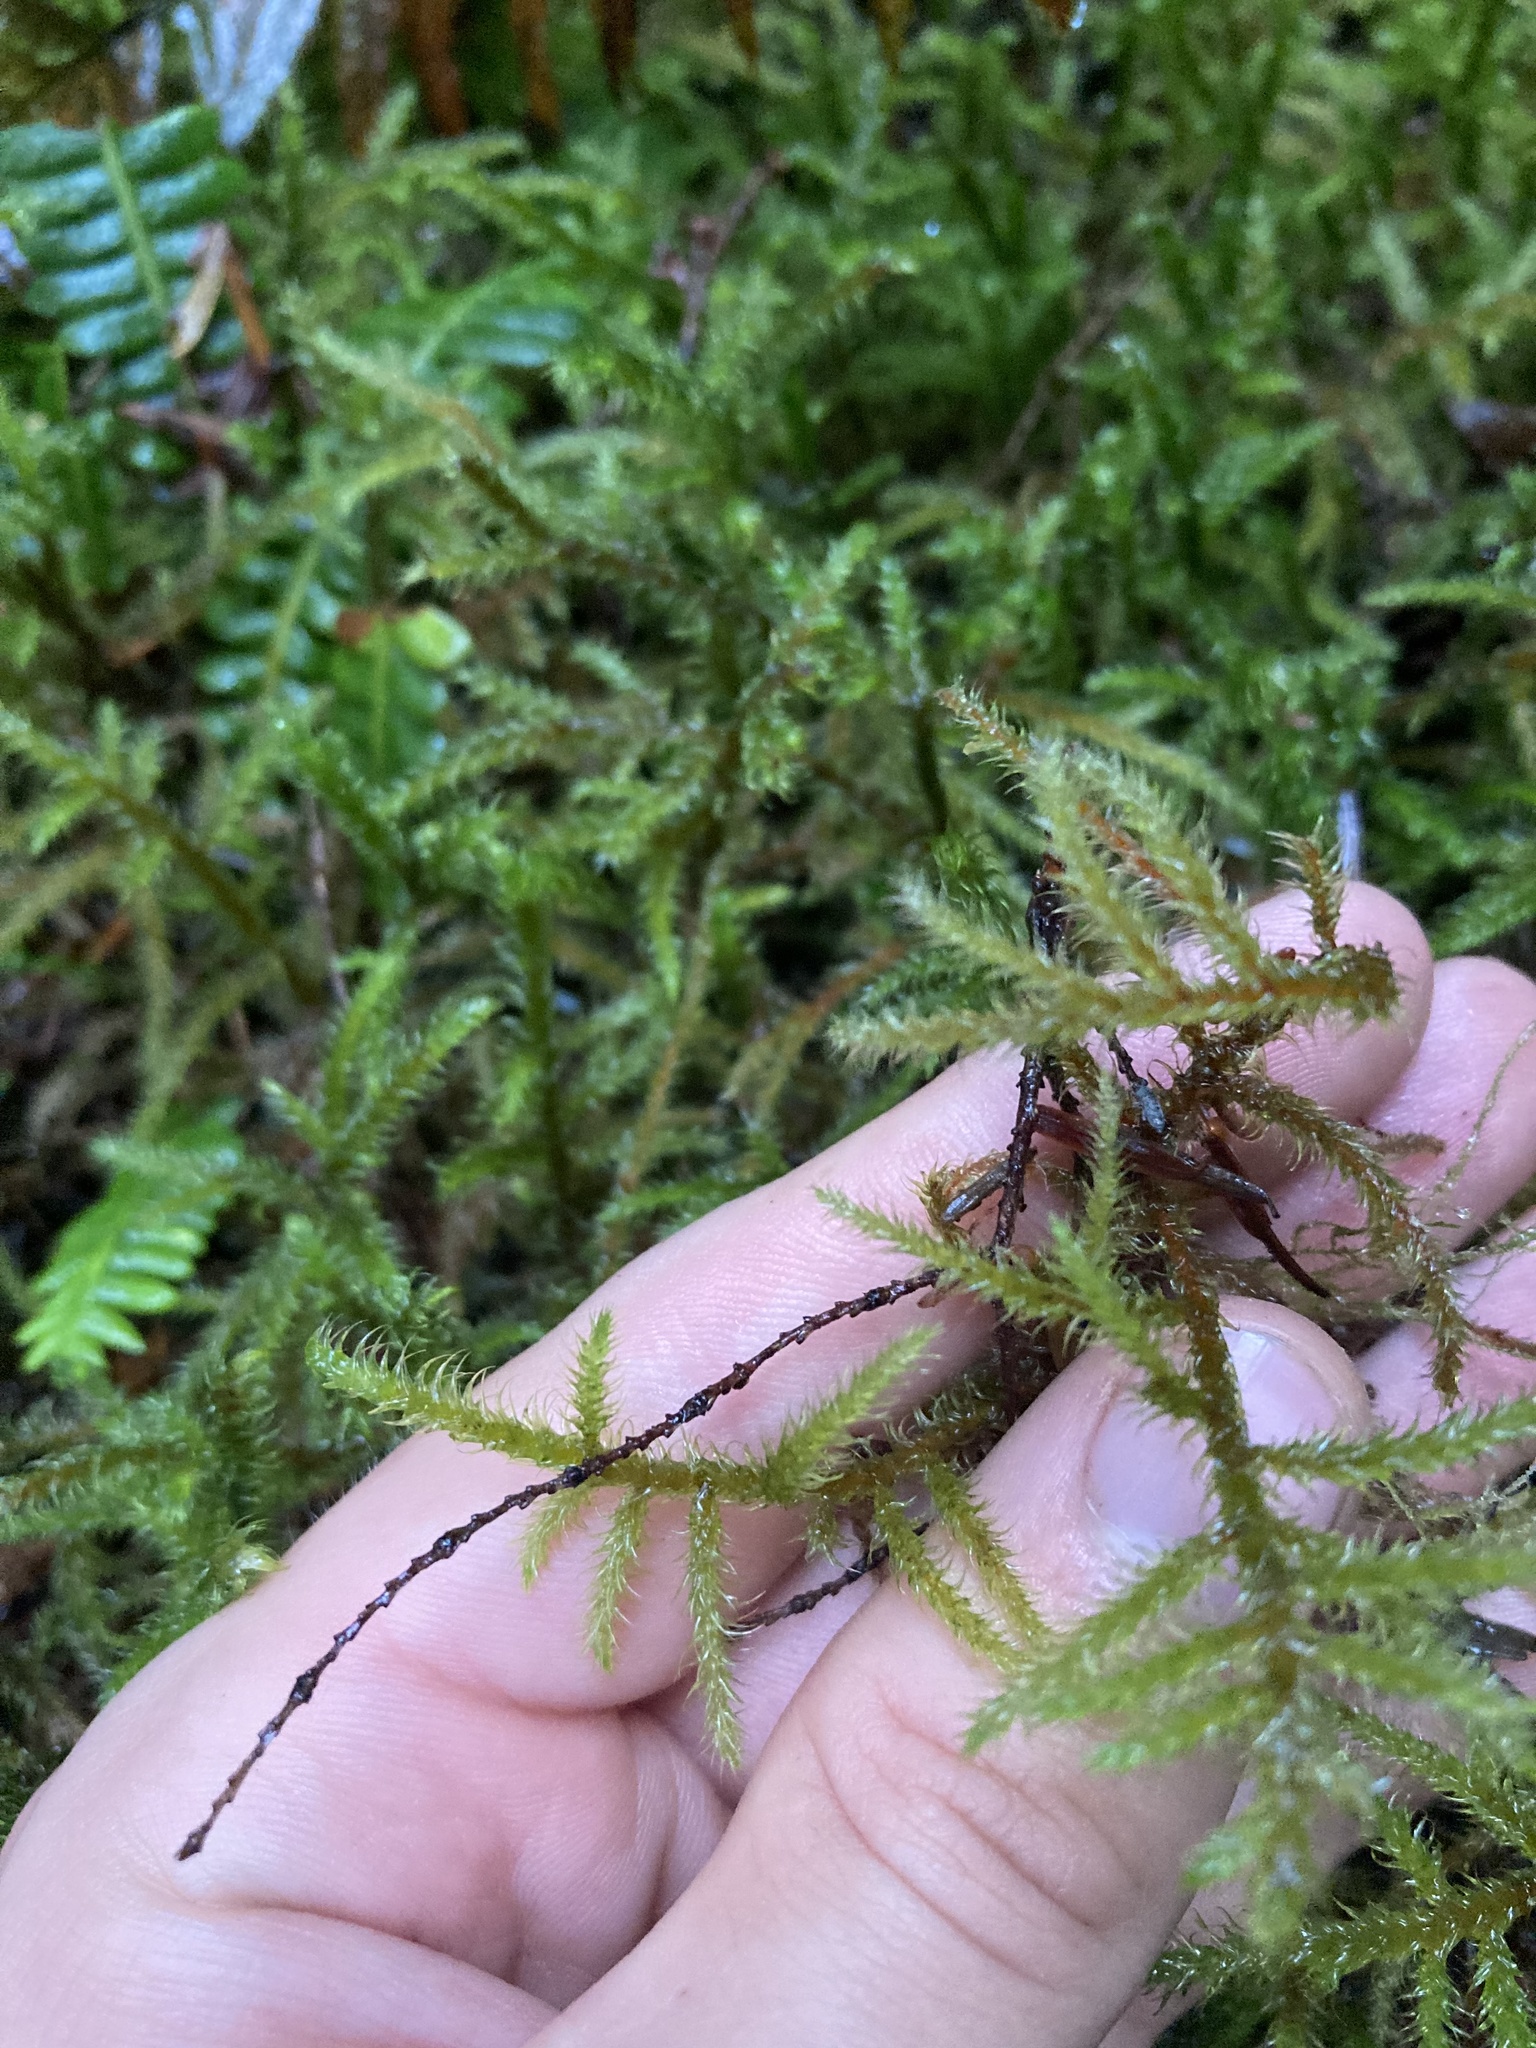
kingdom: Plantae
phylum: Bryophyta
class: Bryopsida
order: Hypnales
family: Hylocomiaceae
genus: Rhytidiadelphus
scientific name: Rhytidiadelphus loreus
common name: Lanky moss
